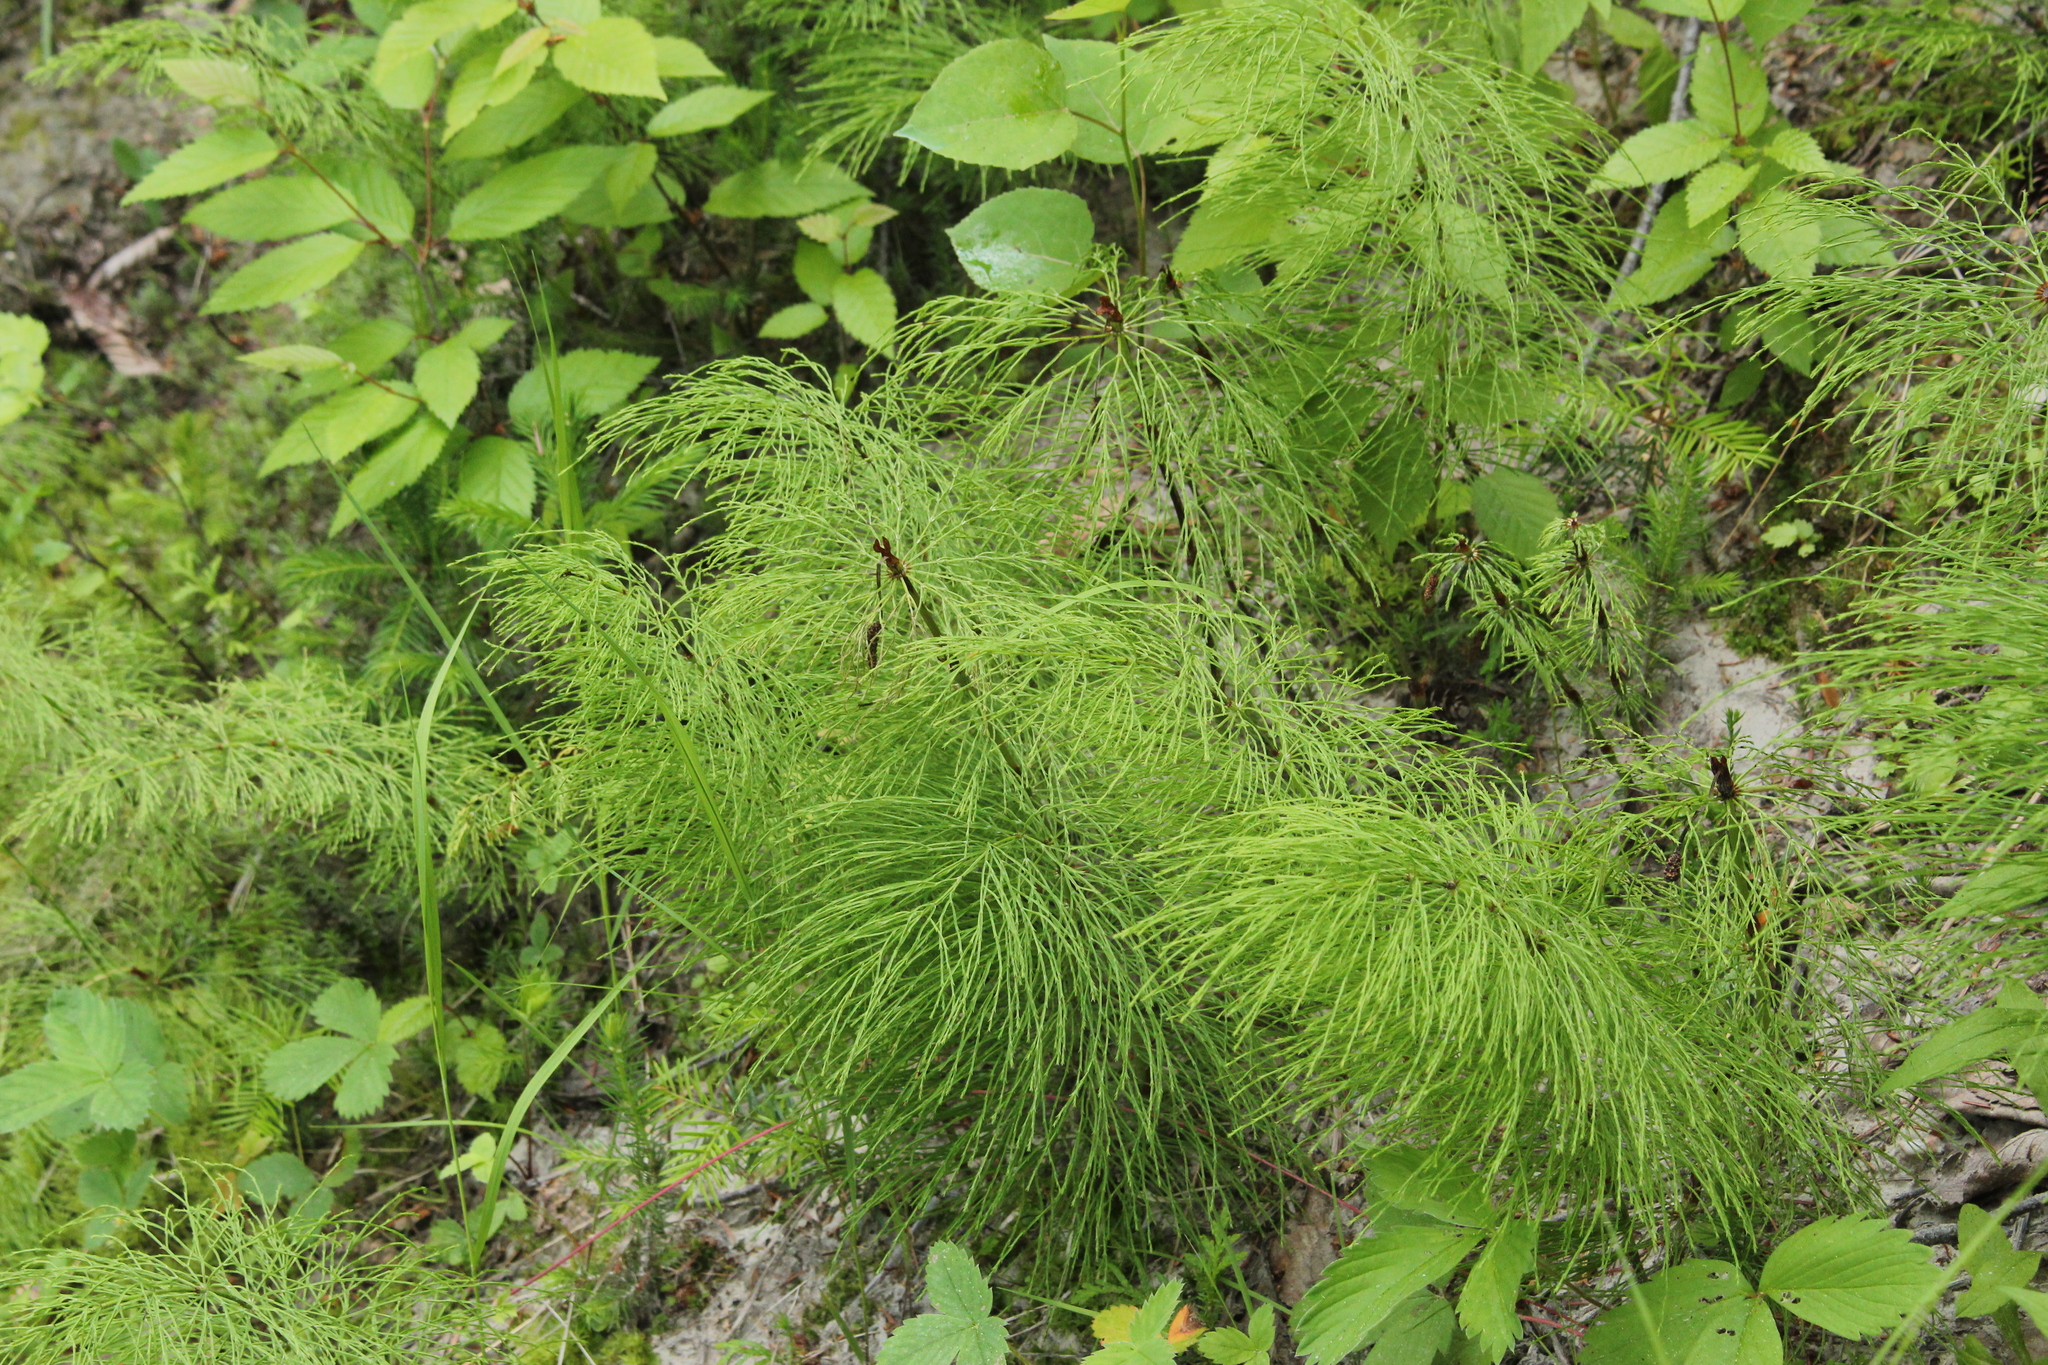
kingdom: Plantae
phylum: Tracheophyta
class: Polypodiopsida
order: Equisetales
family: Equisetaceae
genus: Equisetum
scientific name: Equisetum sylvaticum
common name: Wood horsetail
